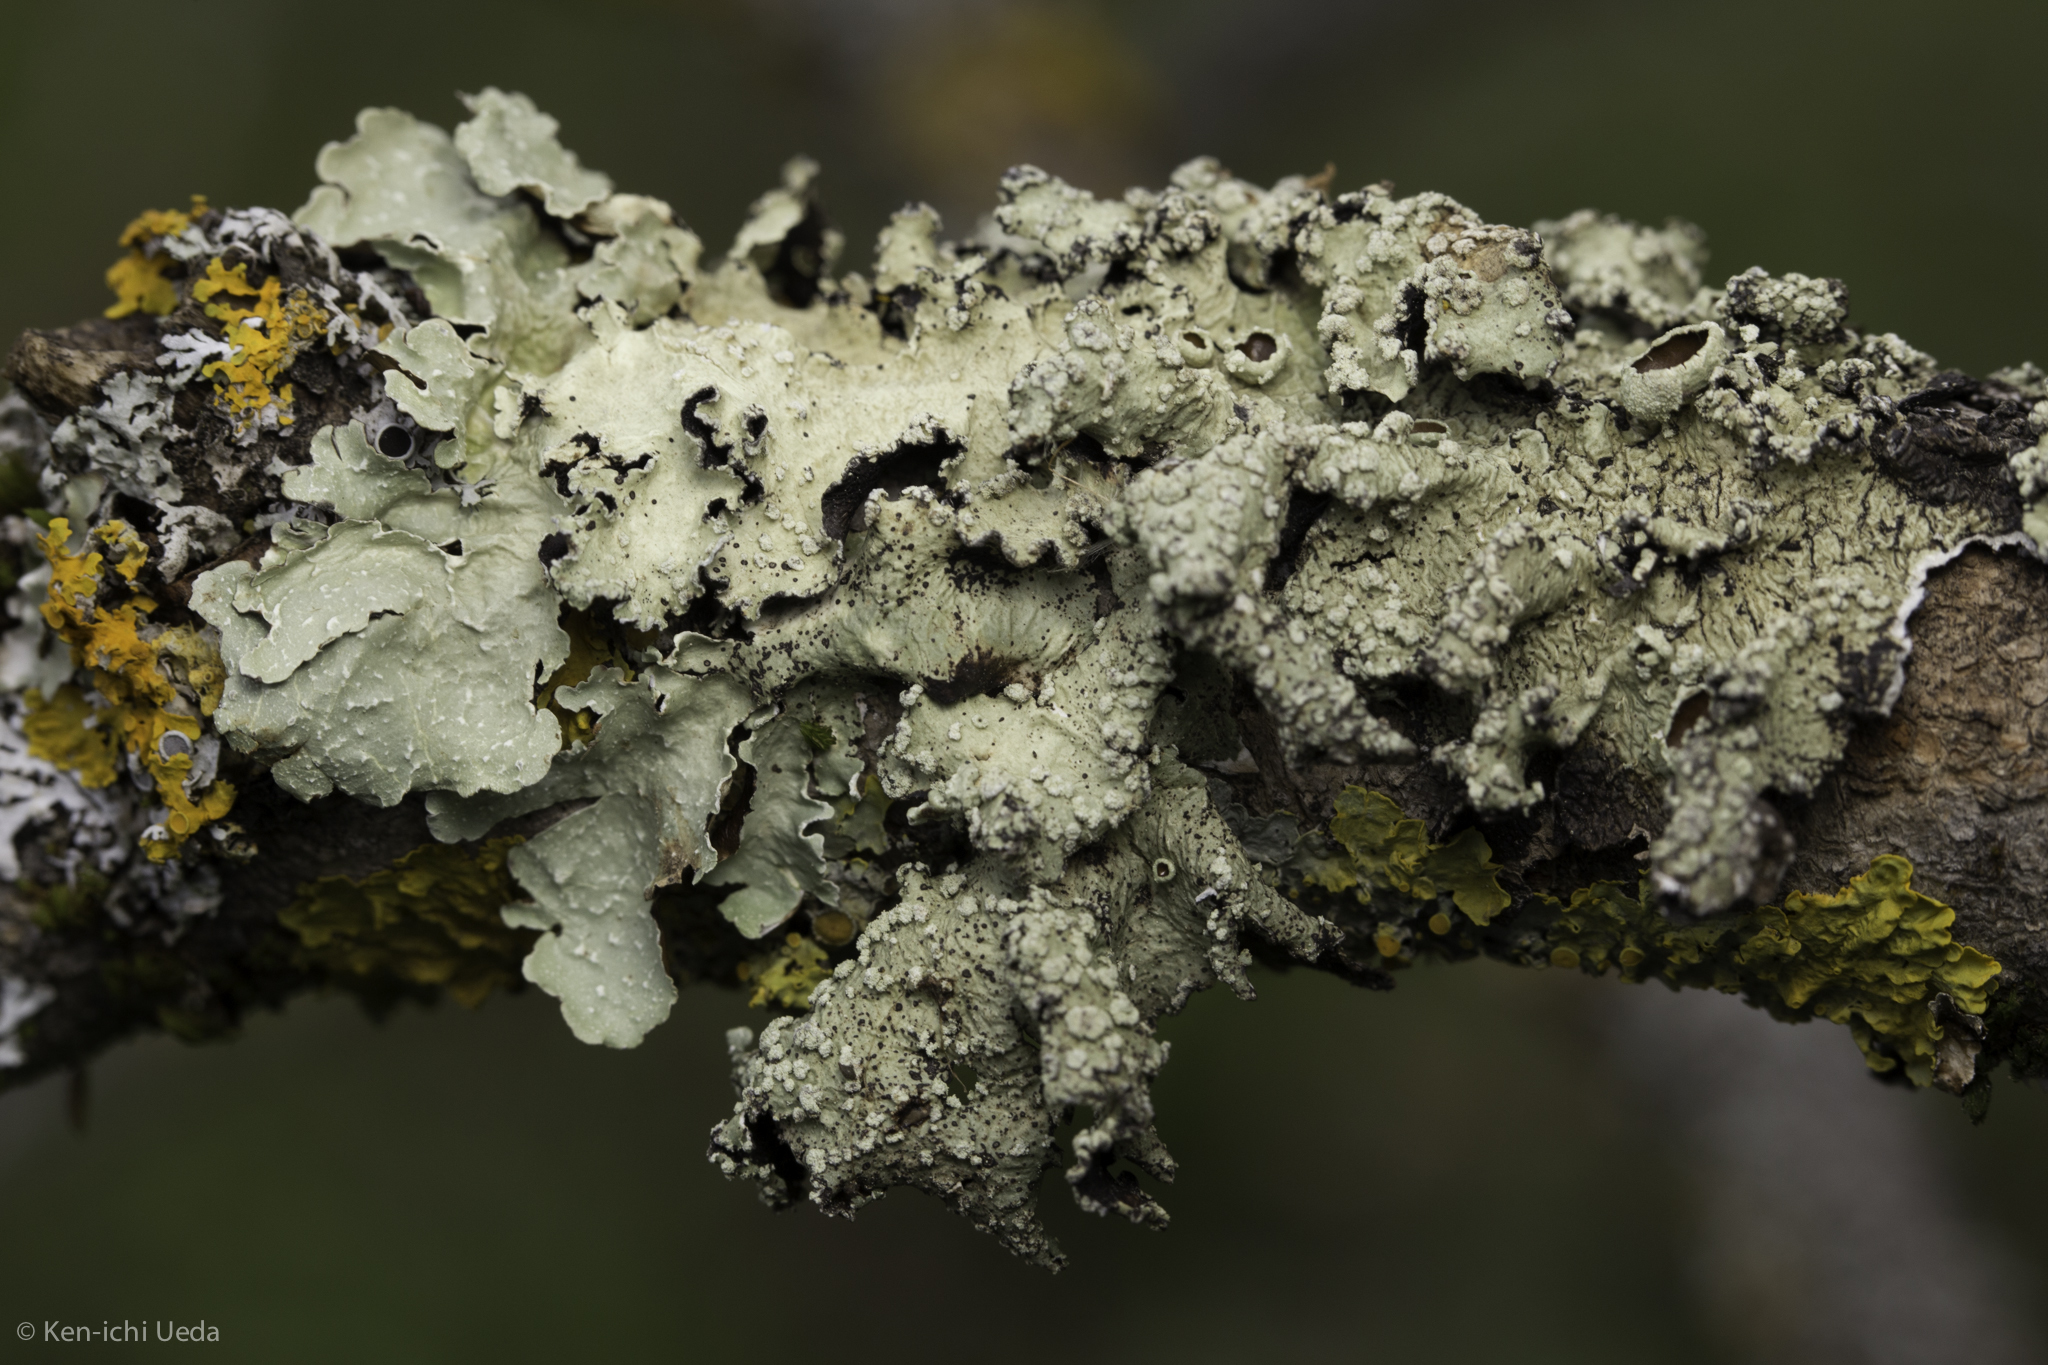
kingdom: Fungi
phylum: Ascomycota
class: Lecanoromycetes
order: Lecanorales
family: Parmeliaceae
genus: Flavopunctelia
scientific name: Flavopunctelia flaventior
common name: Speckled greenshield
